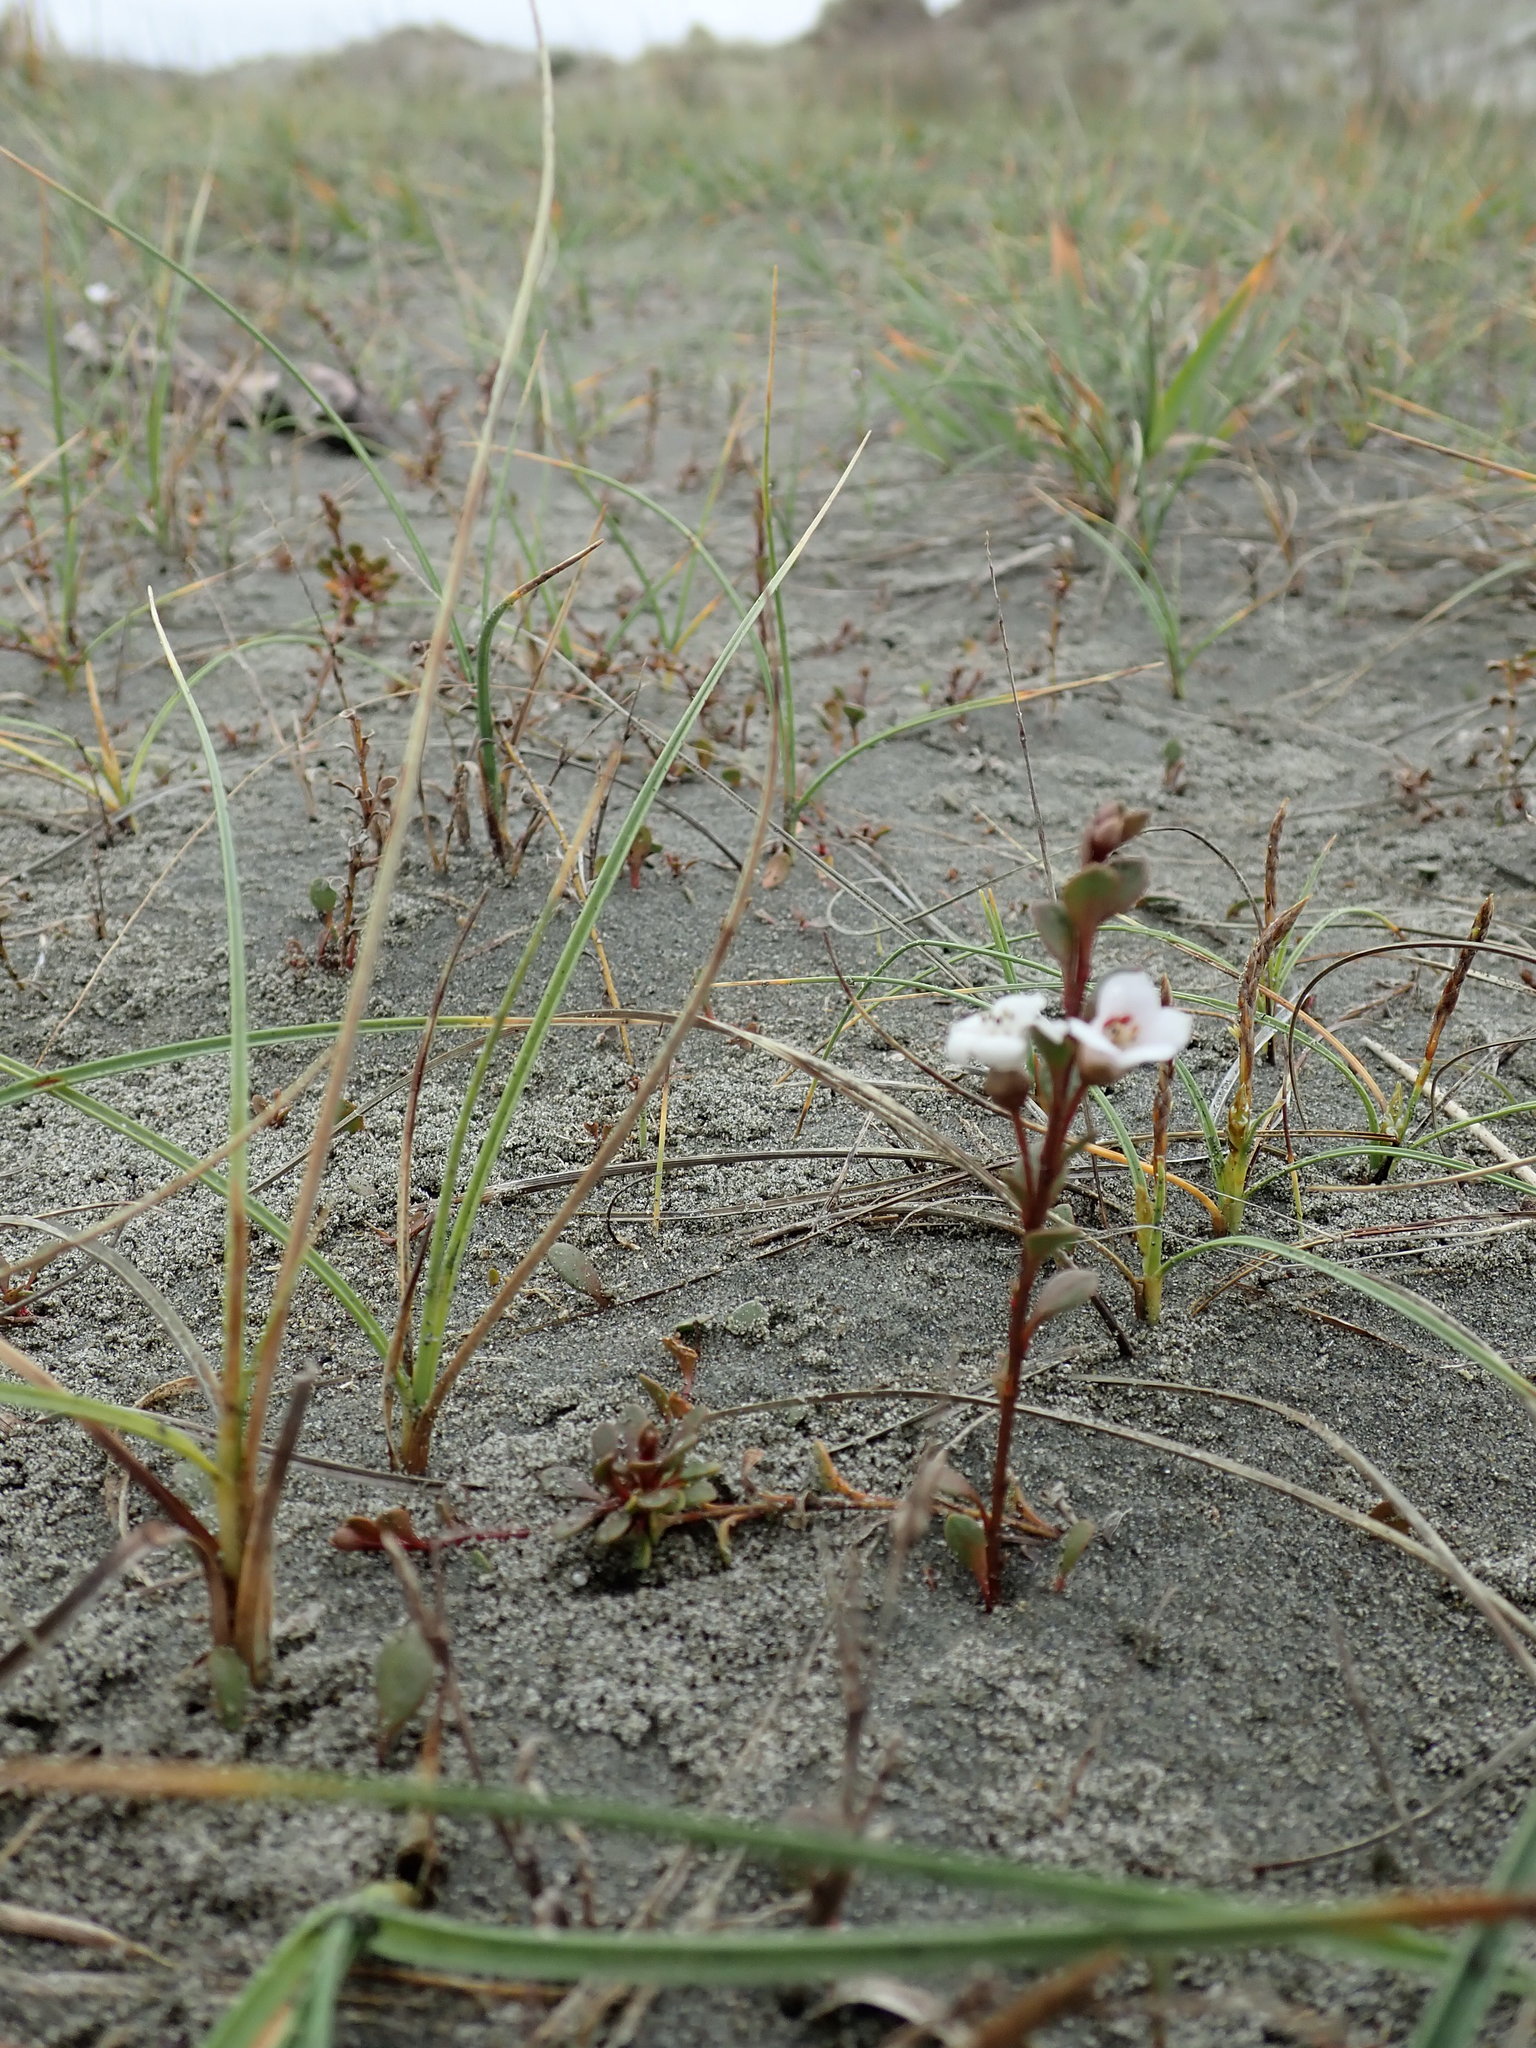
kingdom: Plantae
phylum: Tracheophyta
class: Magnoliopsida
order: Ericales
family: Primulaceae
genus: Samolus
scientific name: Samolus repens
